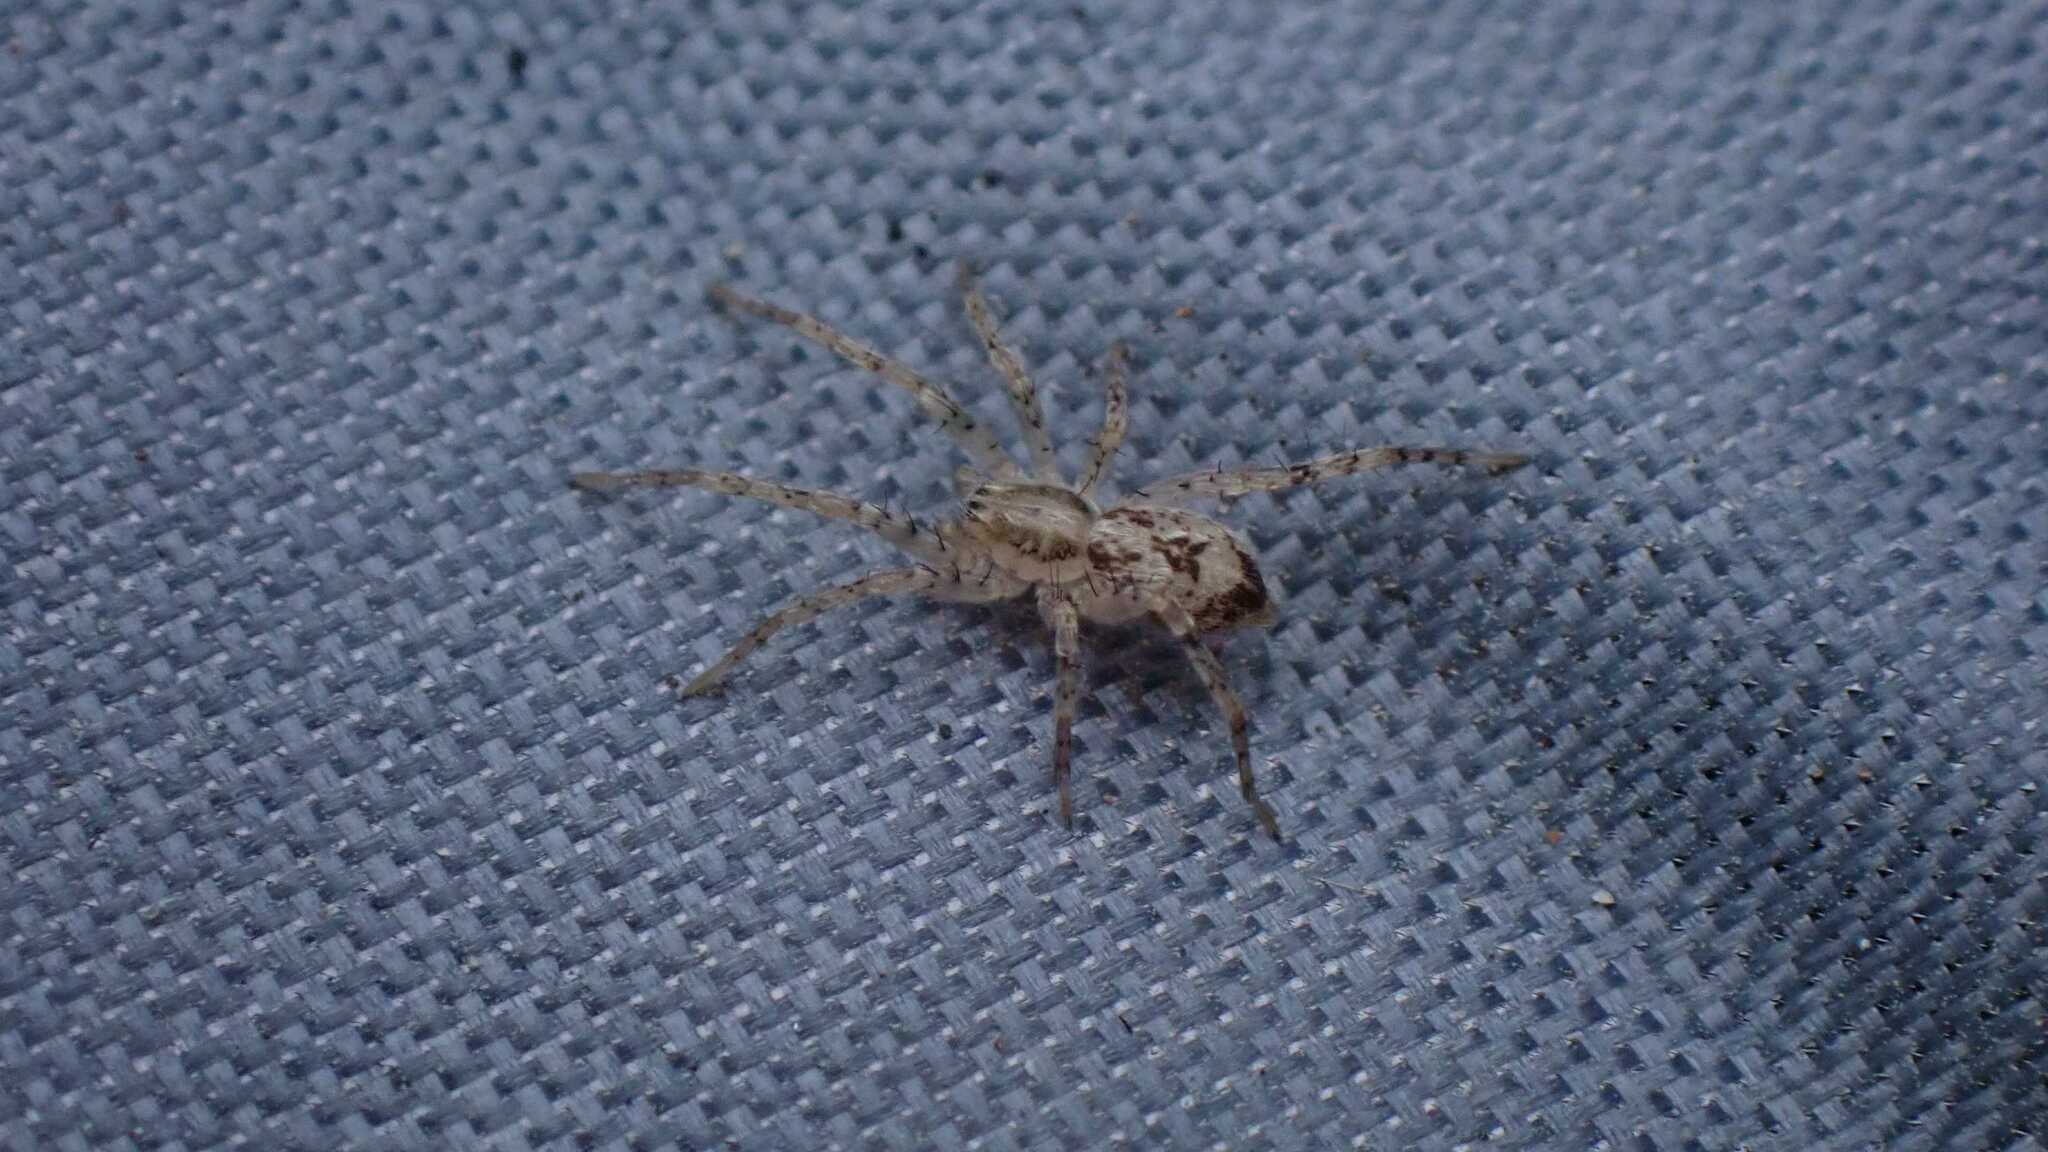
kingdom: Animalia
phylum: Arthropoda
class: Arachnida
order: Araneae
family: Anyphaenidae
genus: Anyphaena
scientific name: Anyphaena accentuata
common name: Buzzing spider
